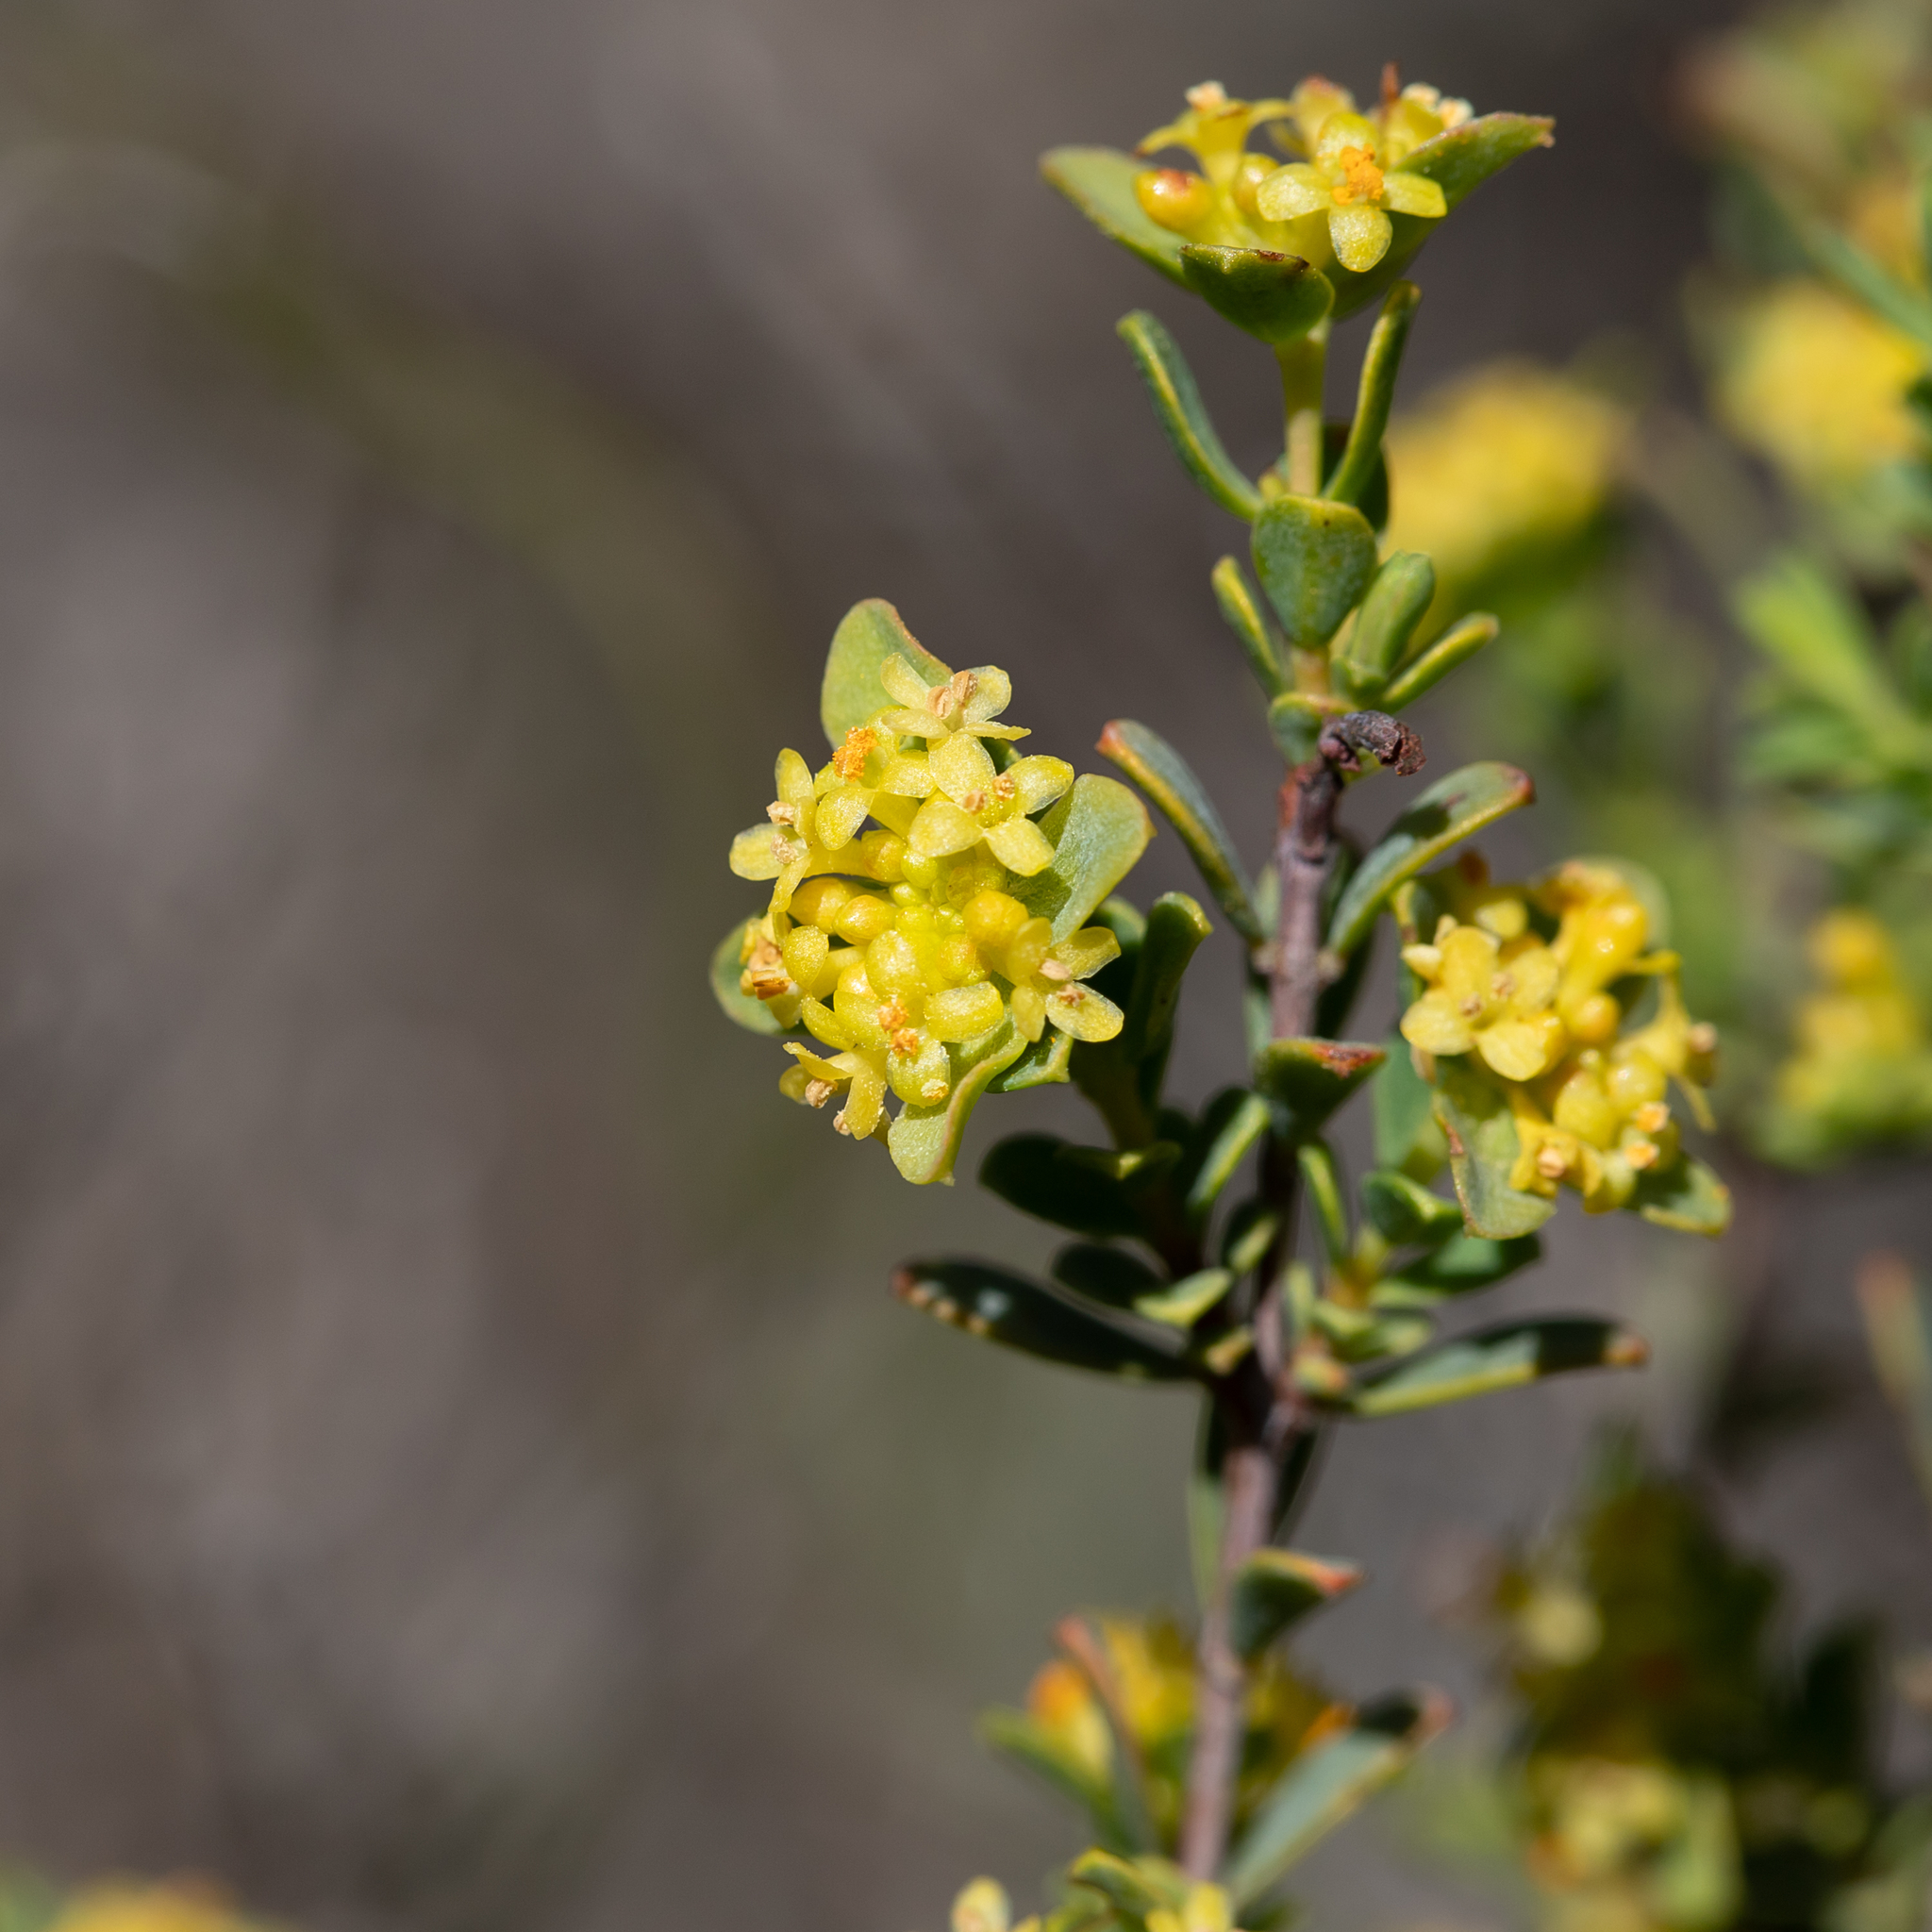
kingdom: Plantae
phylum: Tracheophyta
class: Magnoliopsida
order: Malvales
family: Thymelaeaceae
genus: Pimelea
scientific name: Pimelea serpyllifolia
